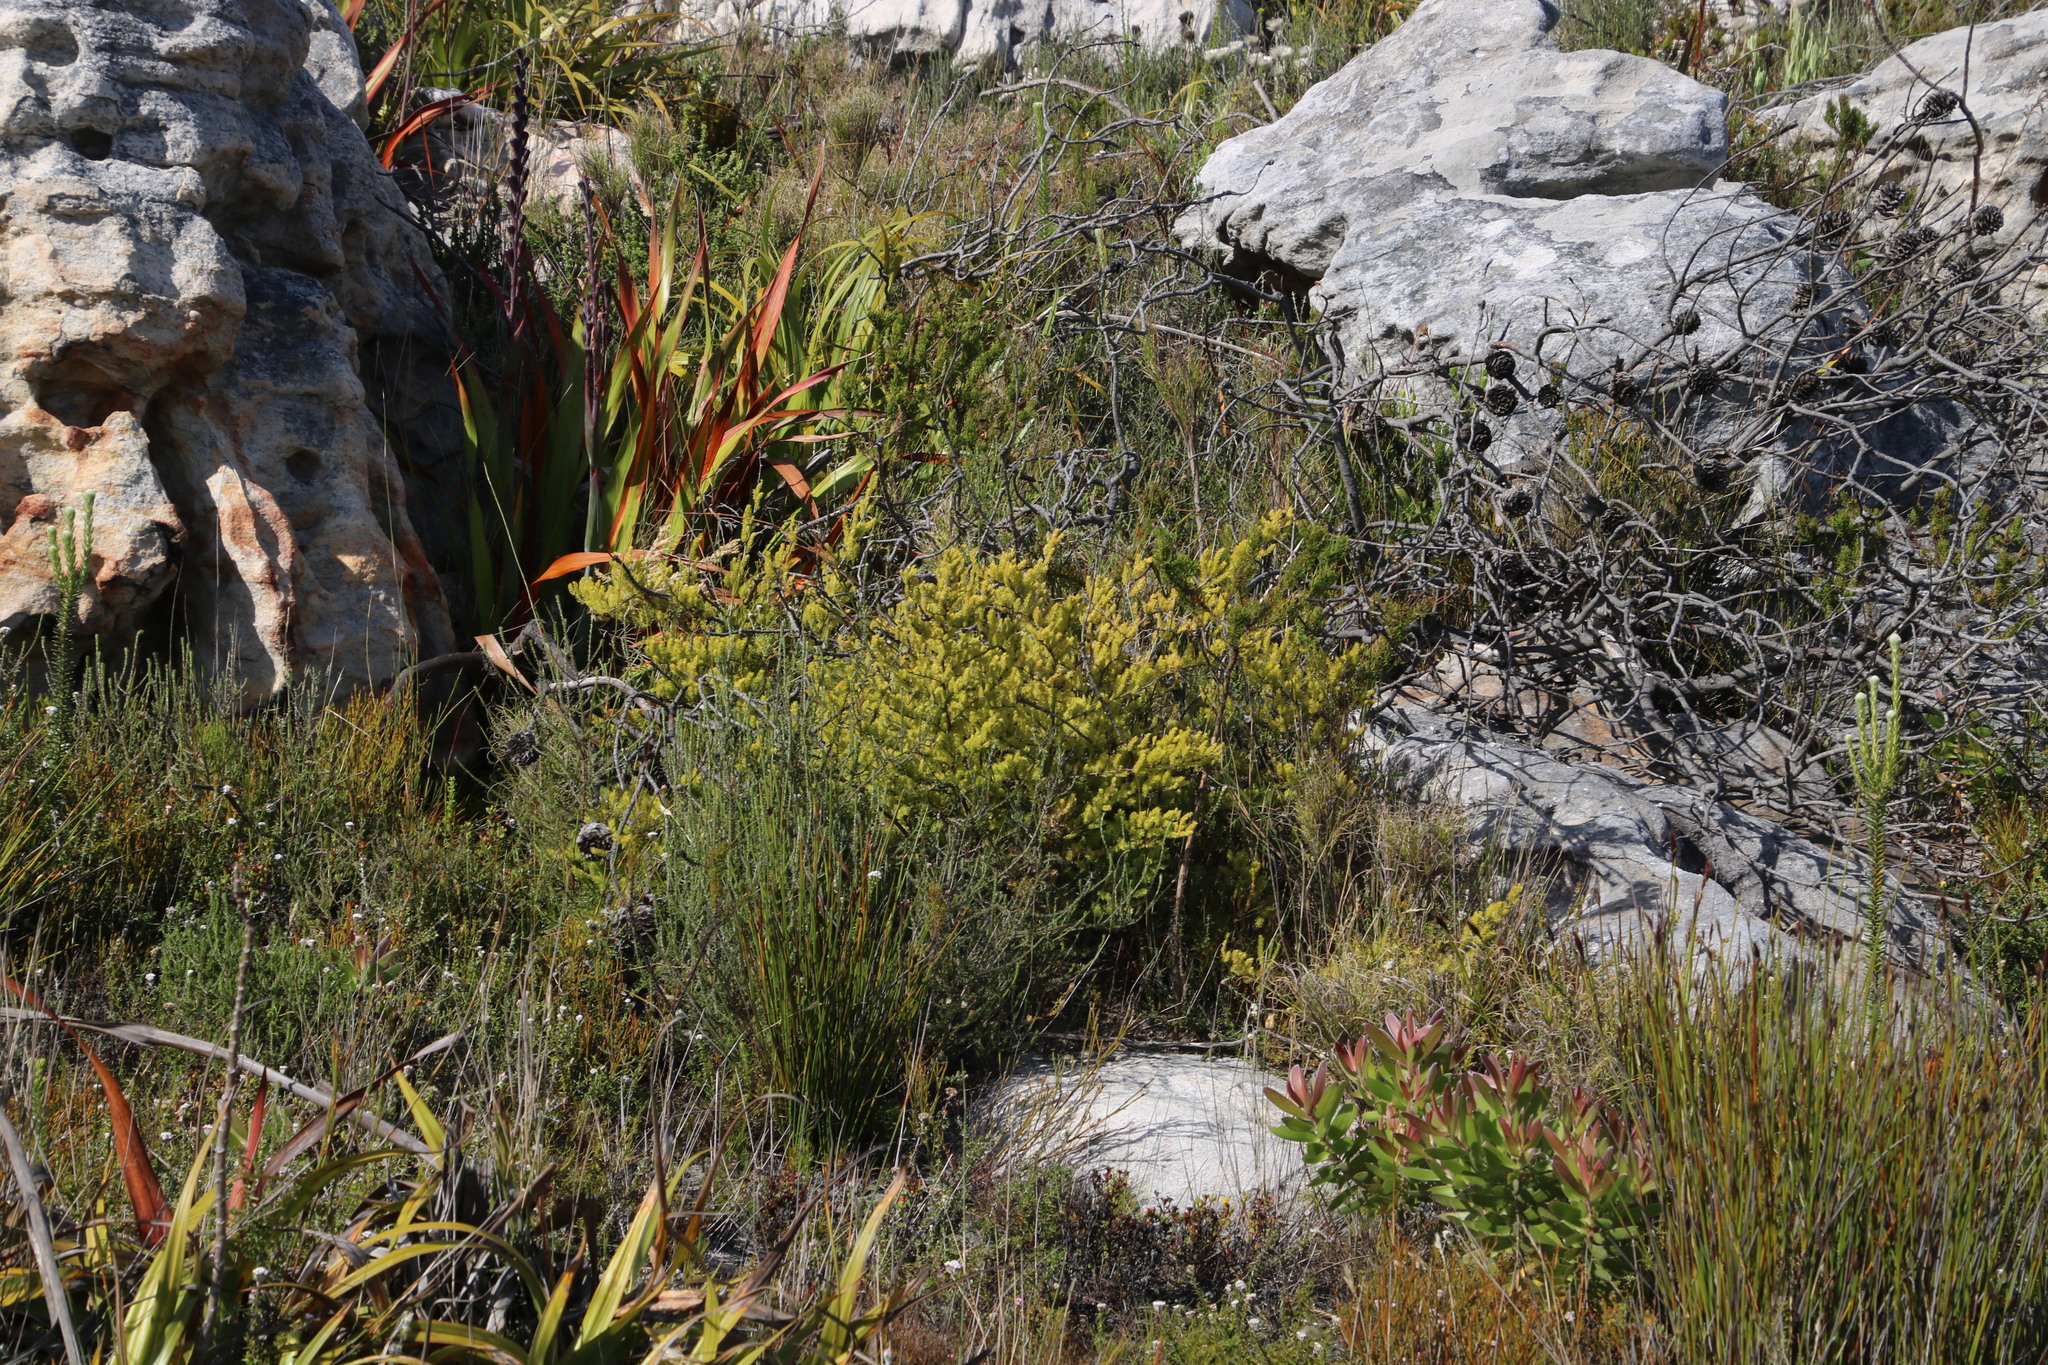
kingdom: Plantae
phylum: Tracheophyta
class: Liliopsida
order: Asparagales
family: Asparagaceae
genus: Asparagus
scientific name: Asparagus rubicundus
